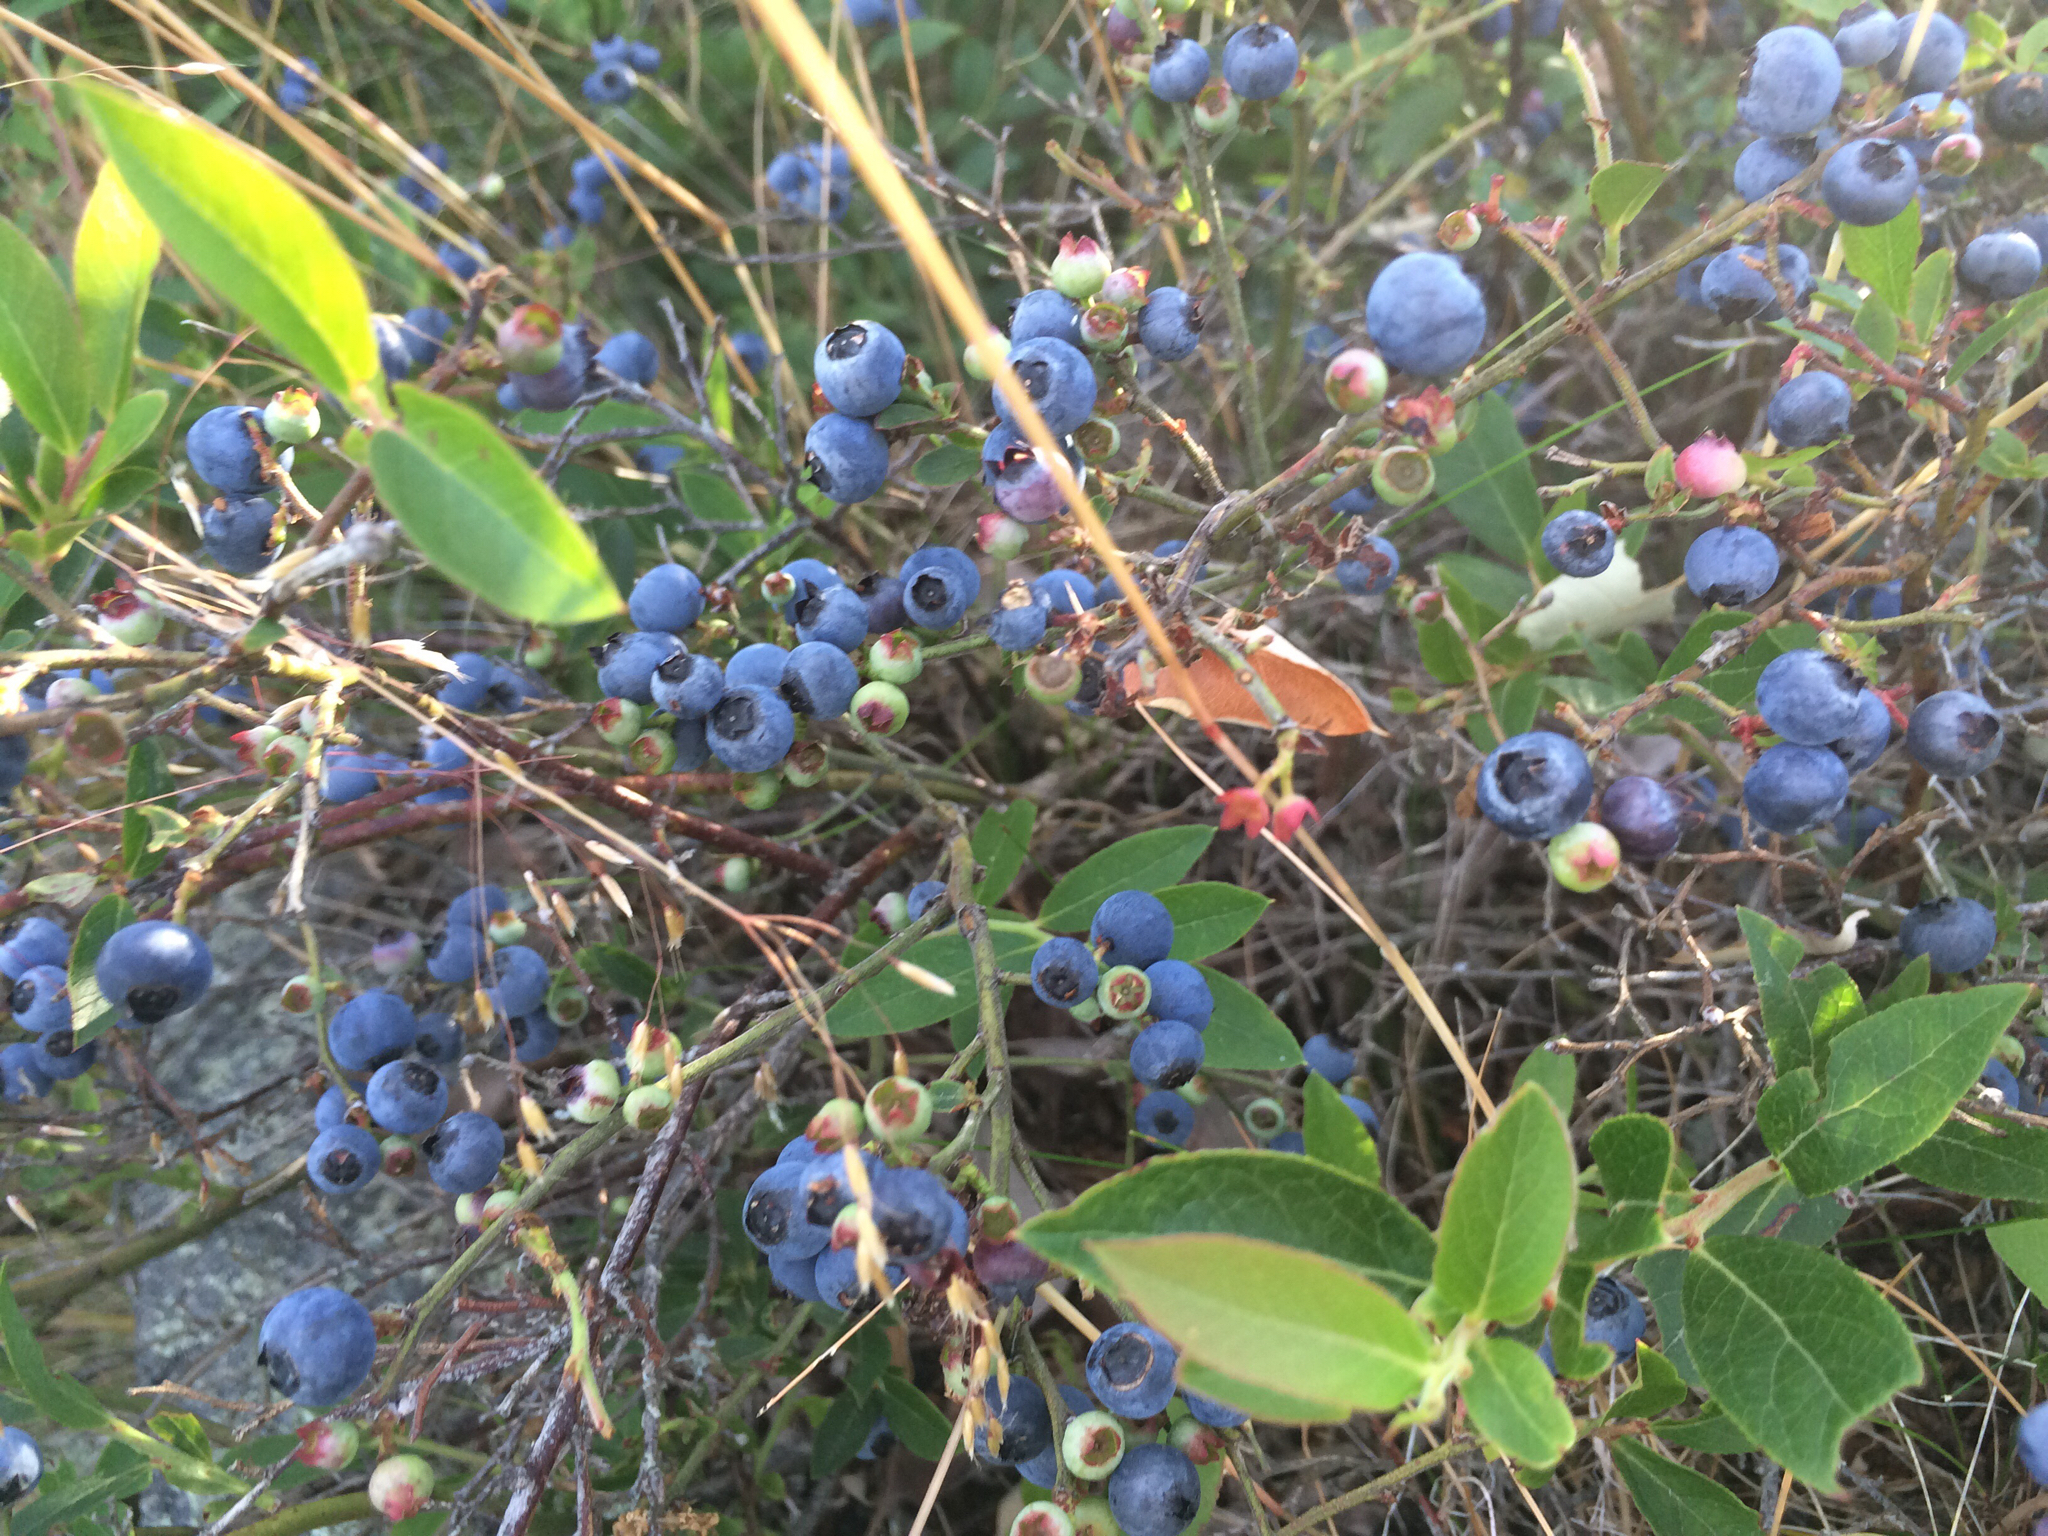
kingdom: Plantae
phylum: Tracheophyta
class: Magnoliopsida
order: Ericales
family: Ericaceae
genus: Vaccinium
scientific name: Vaccinium angustifolium
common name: Early lowbush blueberry
